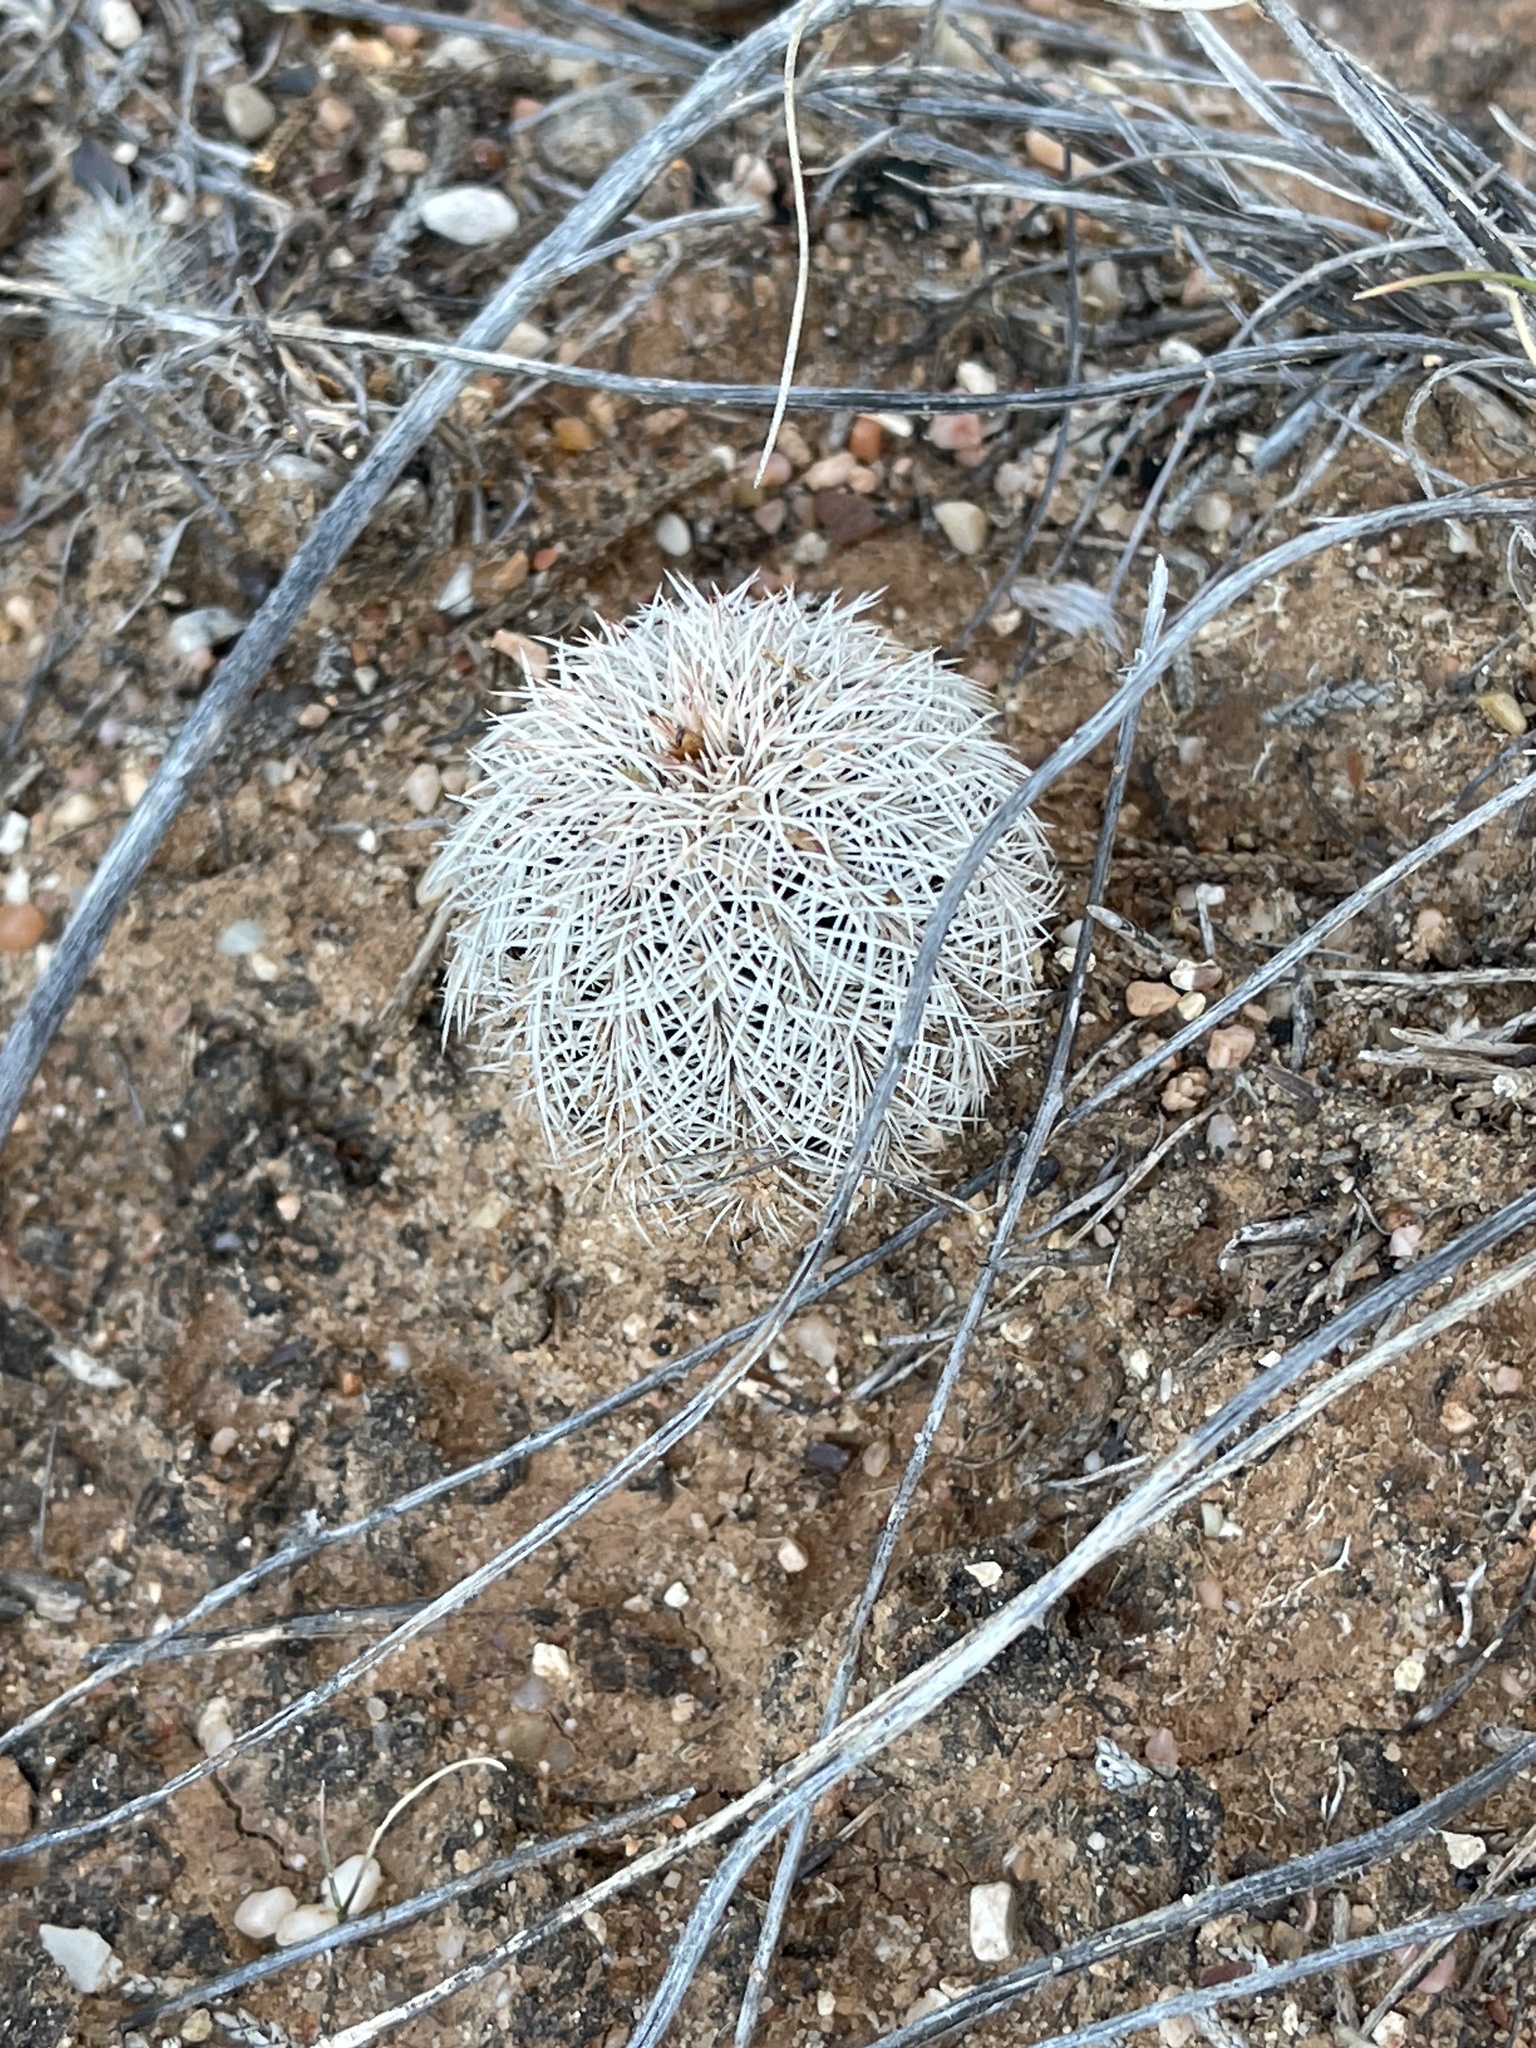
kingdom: Plantae
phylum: Tracheophyta
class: Magnoliopsida
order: Caryophyllales
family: Cactaceae
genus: Echinocereus
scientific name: Echinocereus reichenbachii
